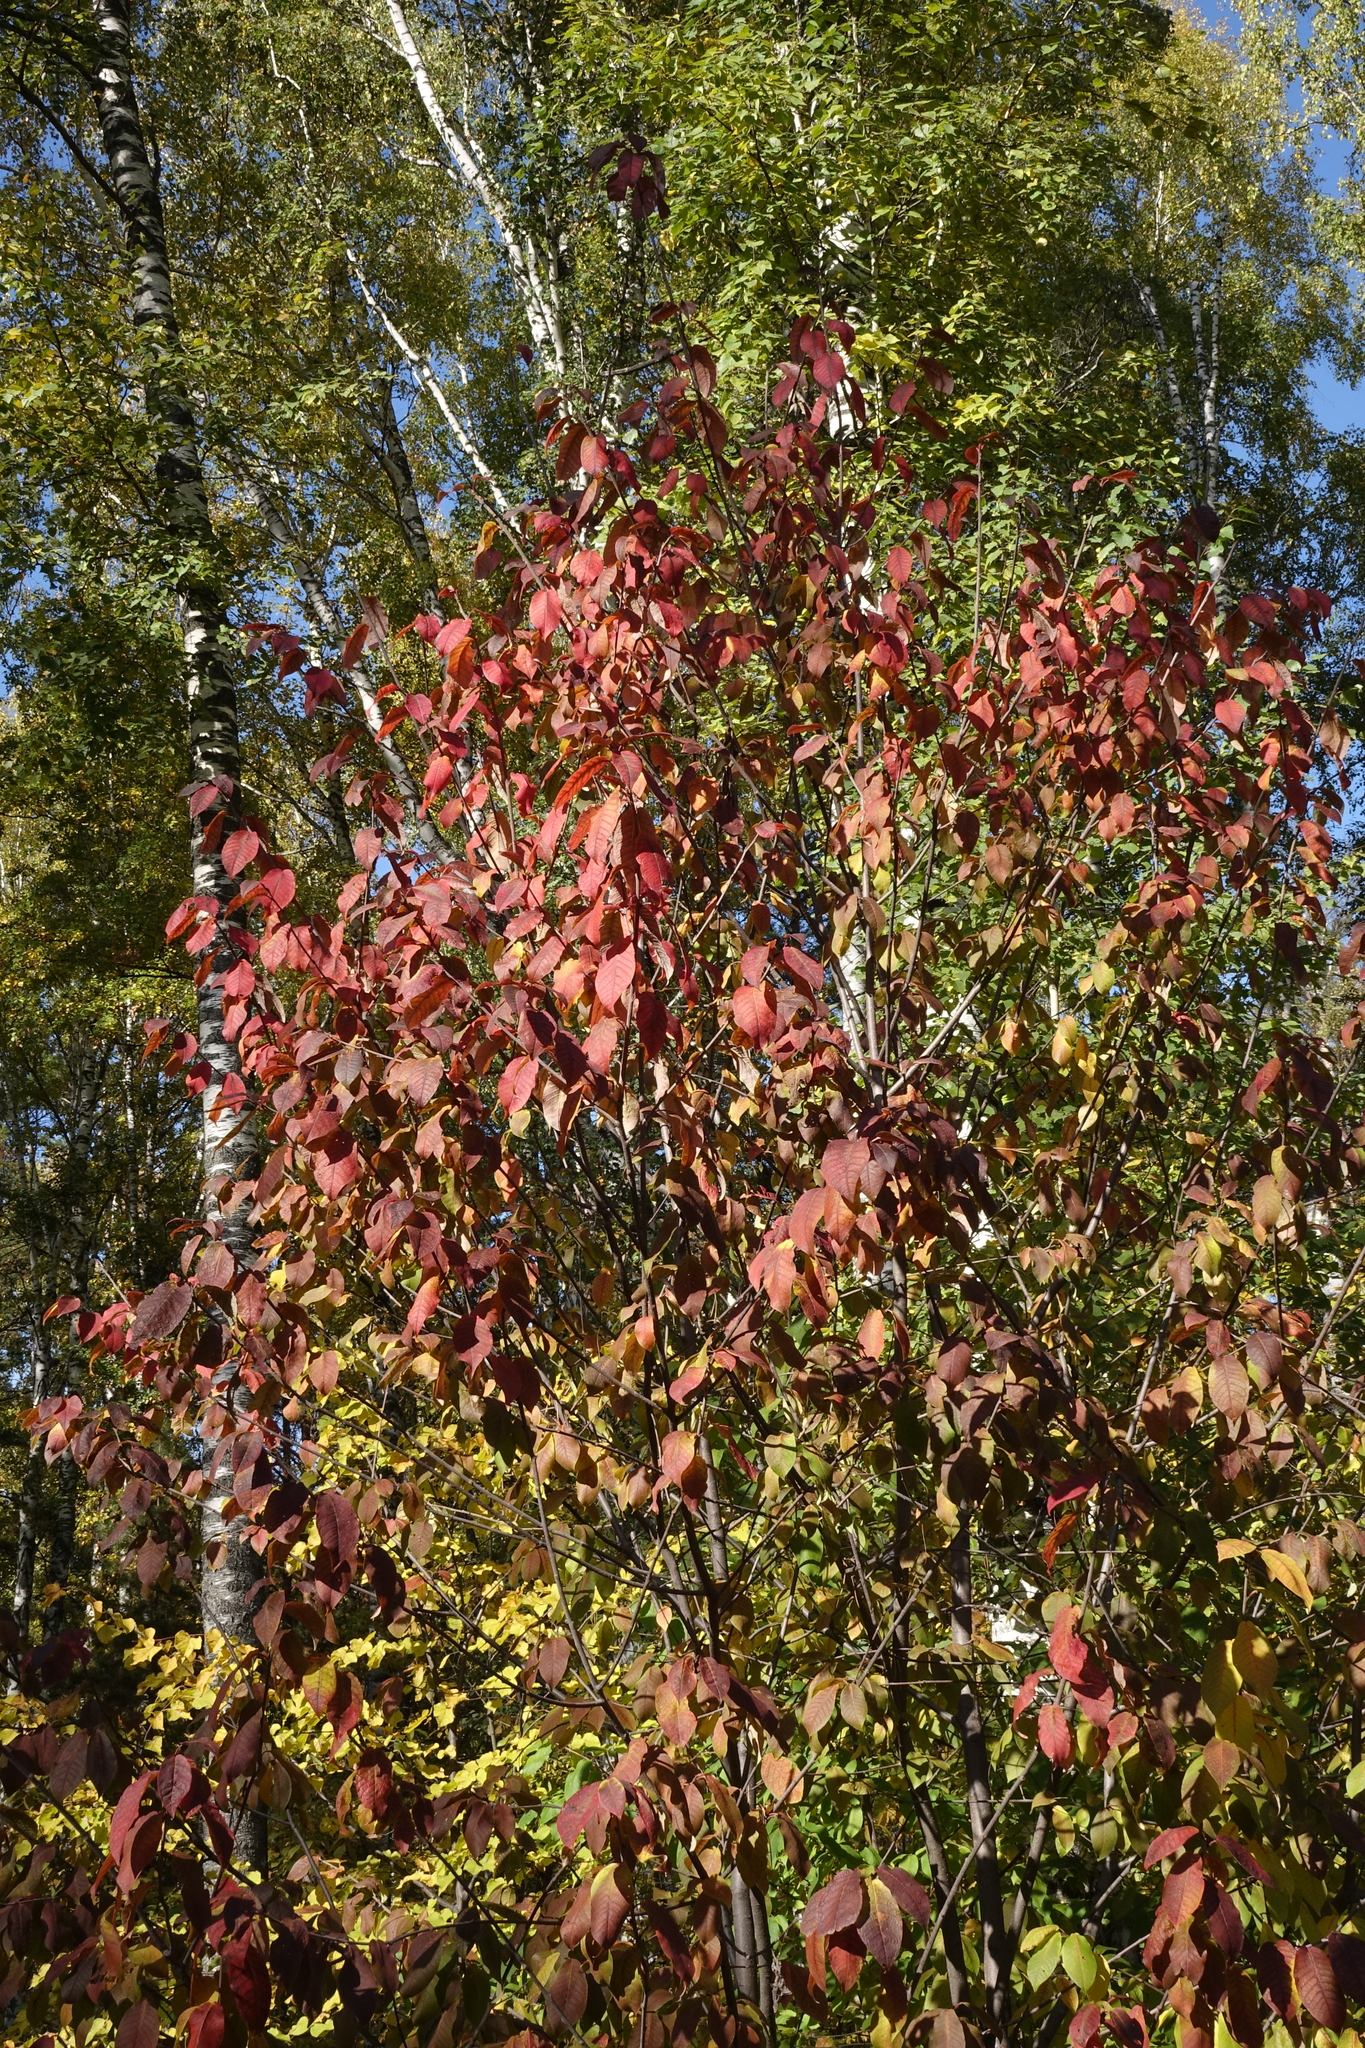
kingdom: Plantae
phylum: Tracheophyta
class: Magnoliopsida
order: Rosales
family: Rosaceae
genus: Prunus
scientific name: Prunus padus
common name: Bird cherry
